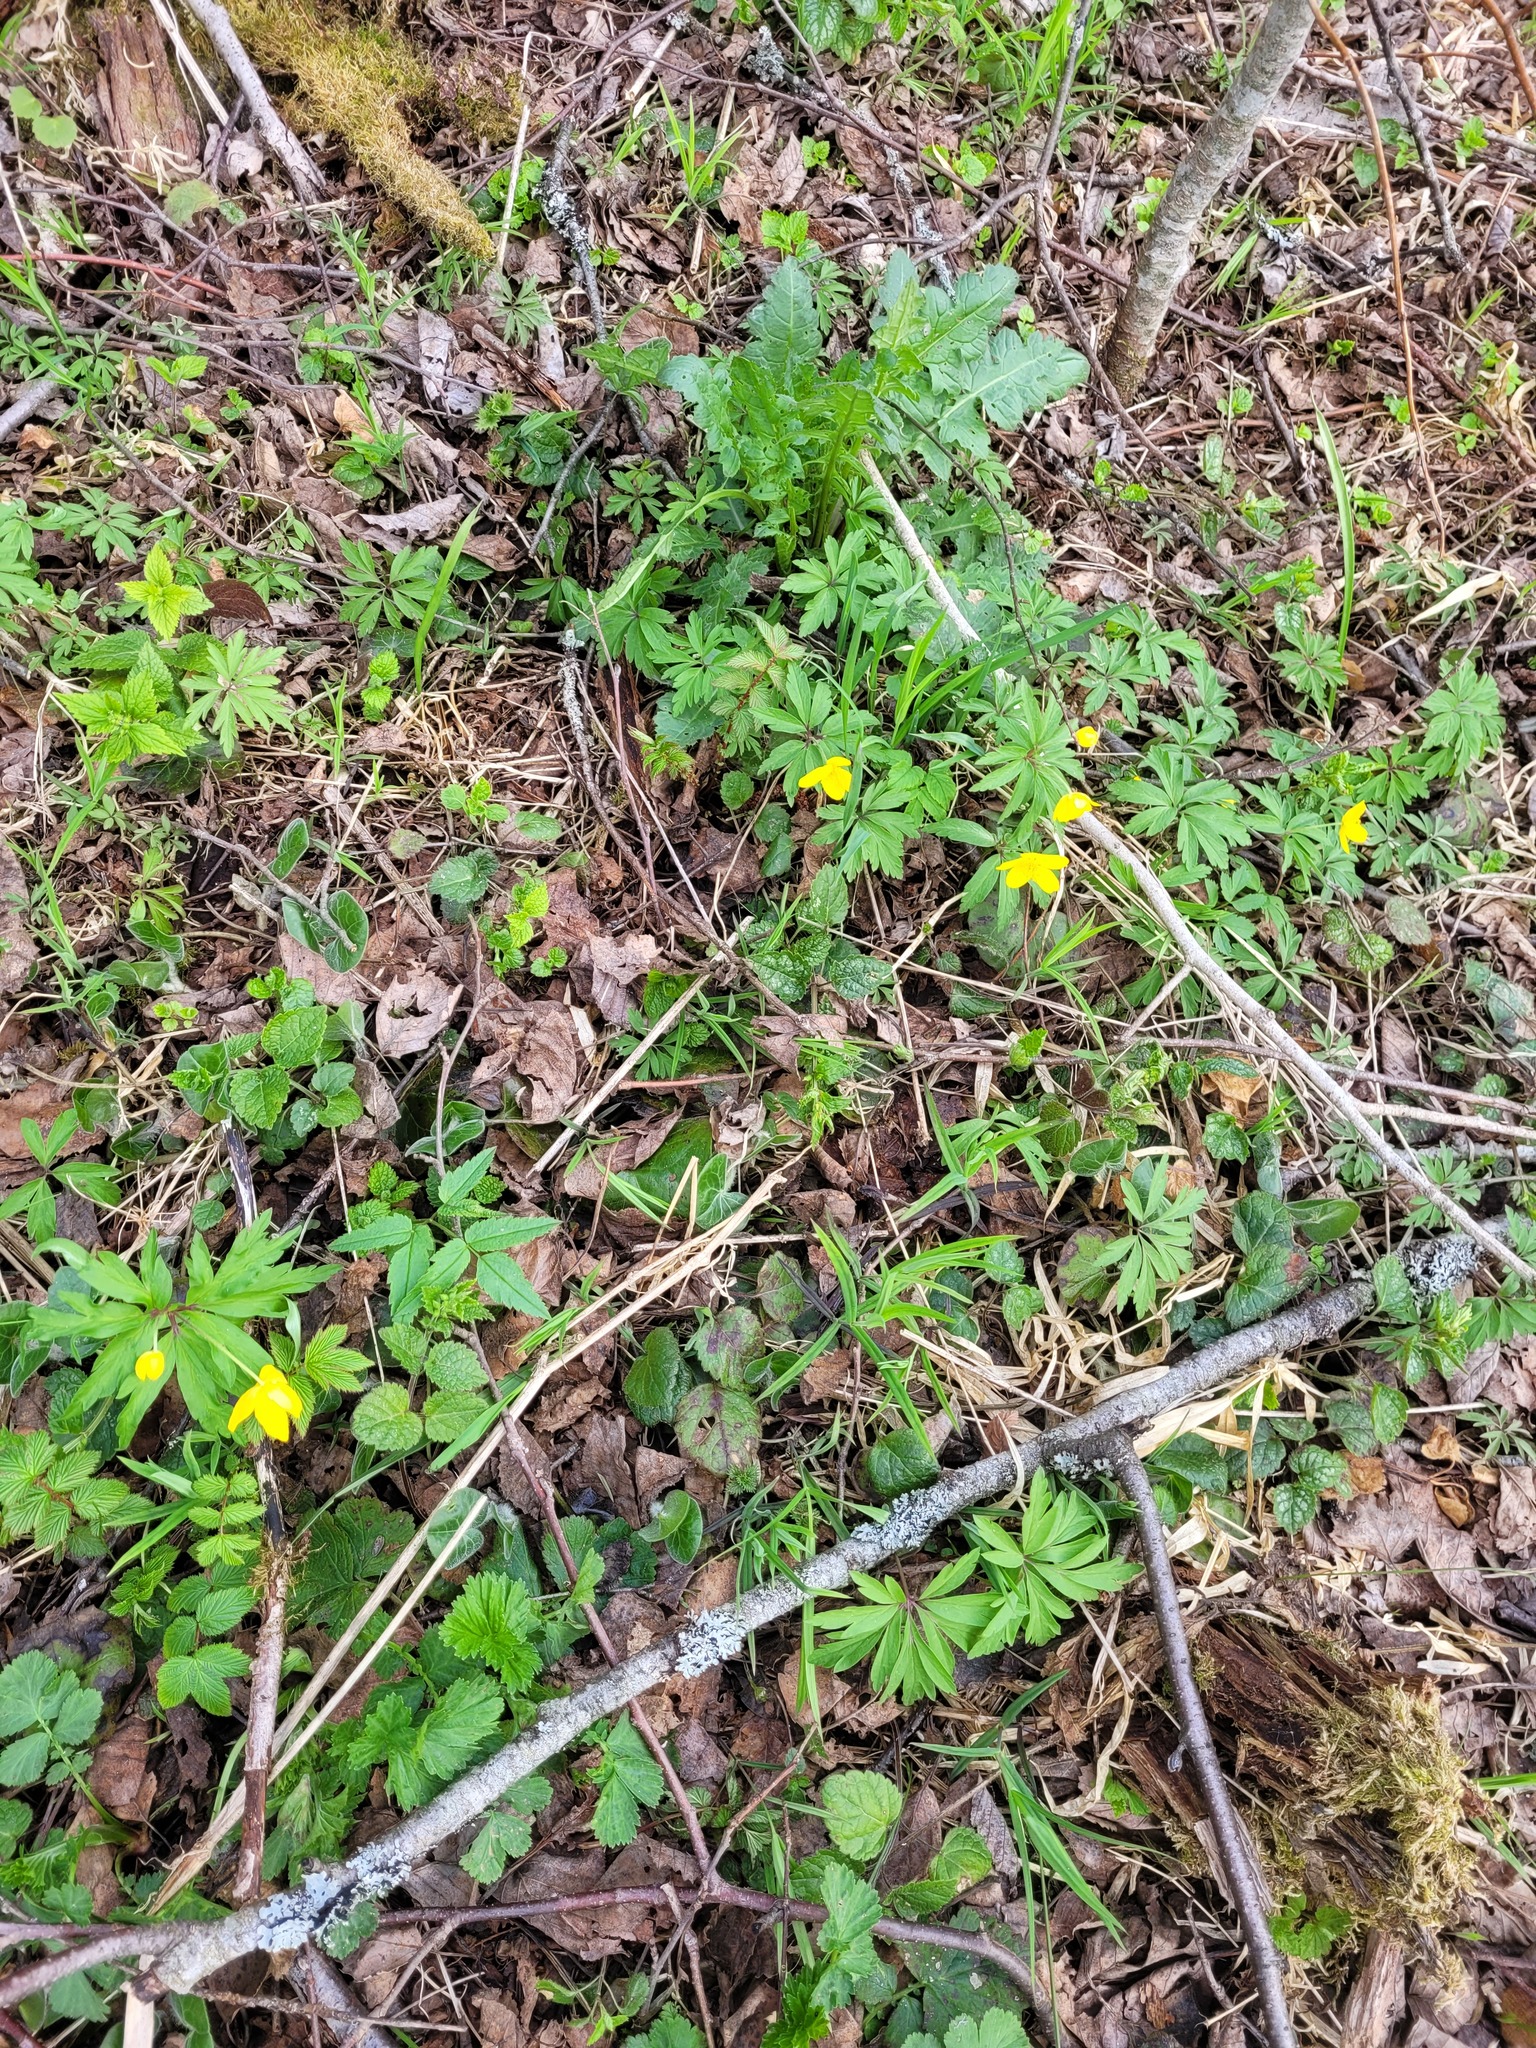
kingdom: Plantae
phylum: Tracheophyta
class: Magnoliopsida
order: Ranunculales
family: Ranunculaceae
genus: Anemone
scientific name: Anemone ranunculoides
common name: Yellow anemone
